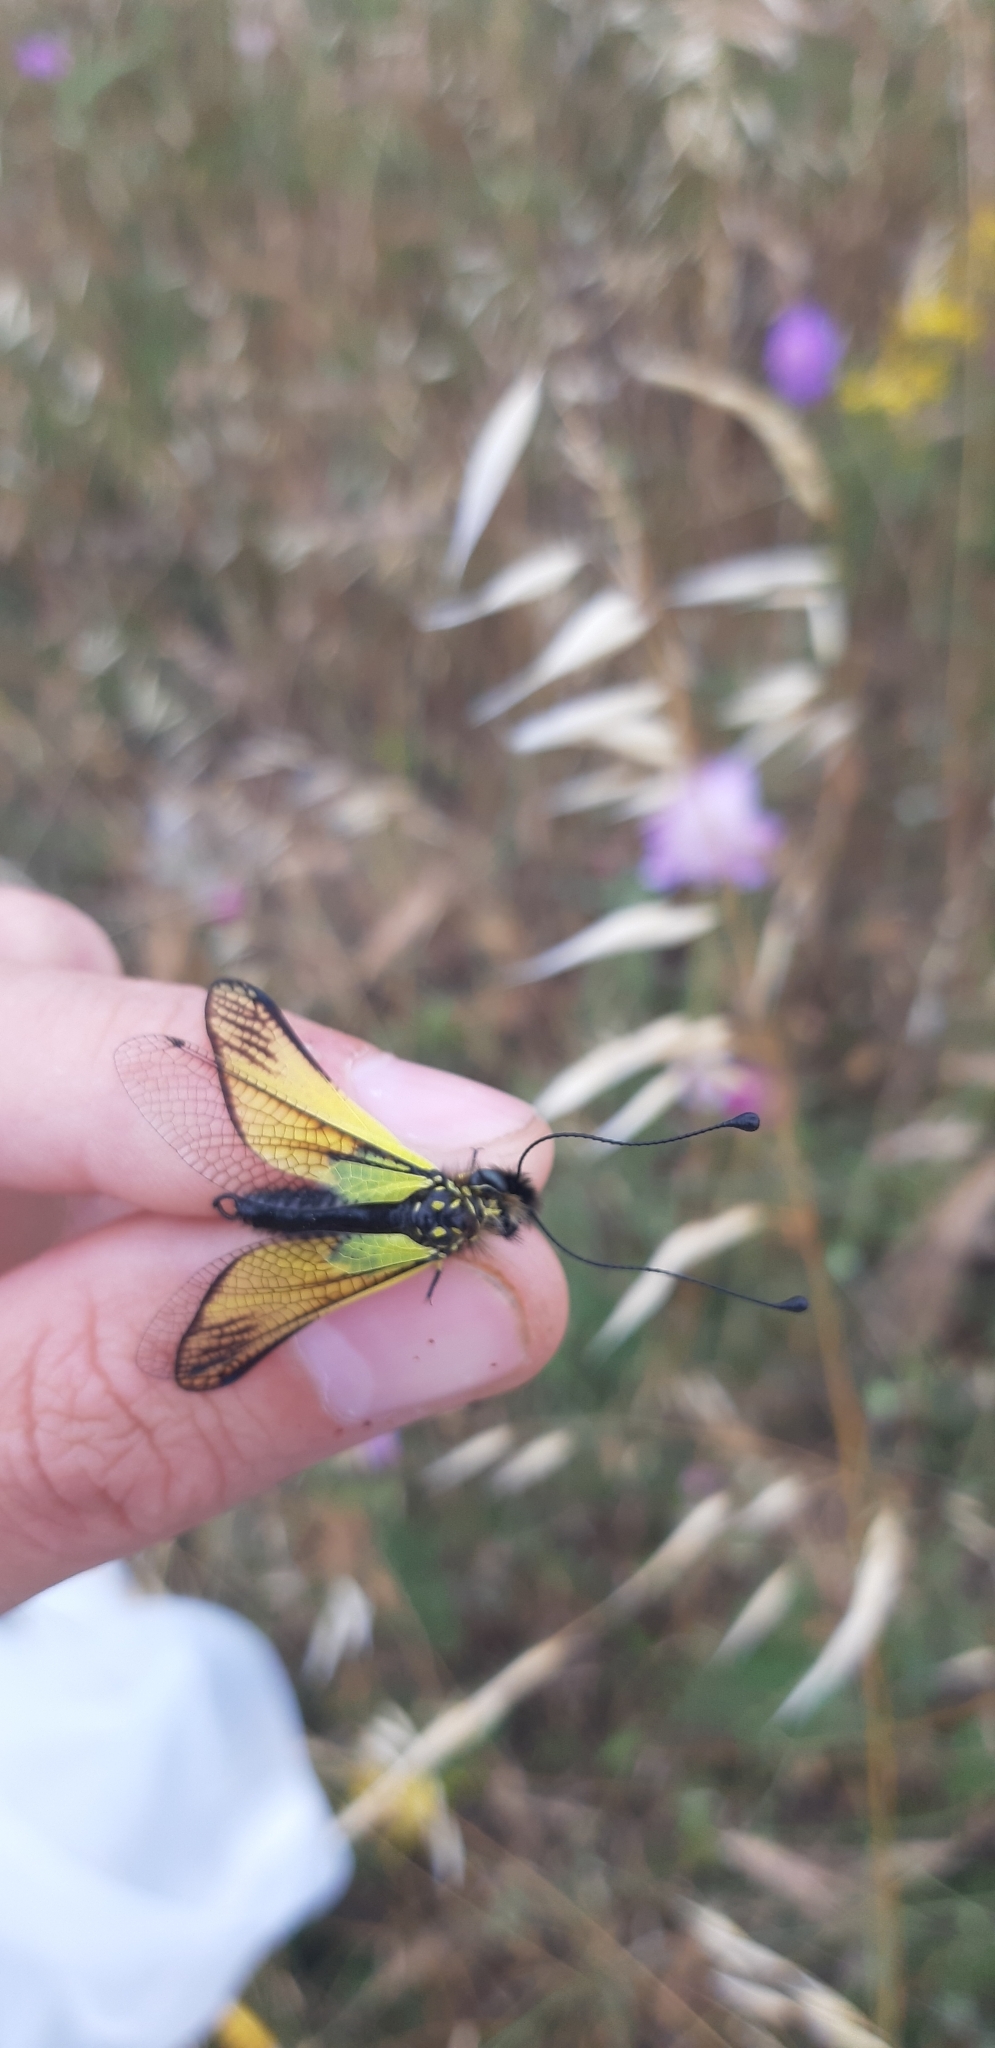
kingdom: Animalia
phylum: Arthropoda
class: Insecta
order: Neuroptera
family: Ascalaphidae
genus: Libelloides
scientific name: Libelloides latinus
